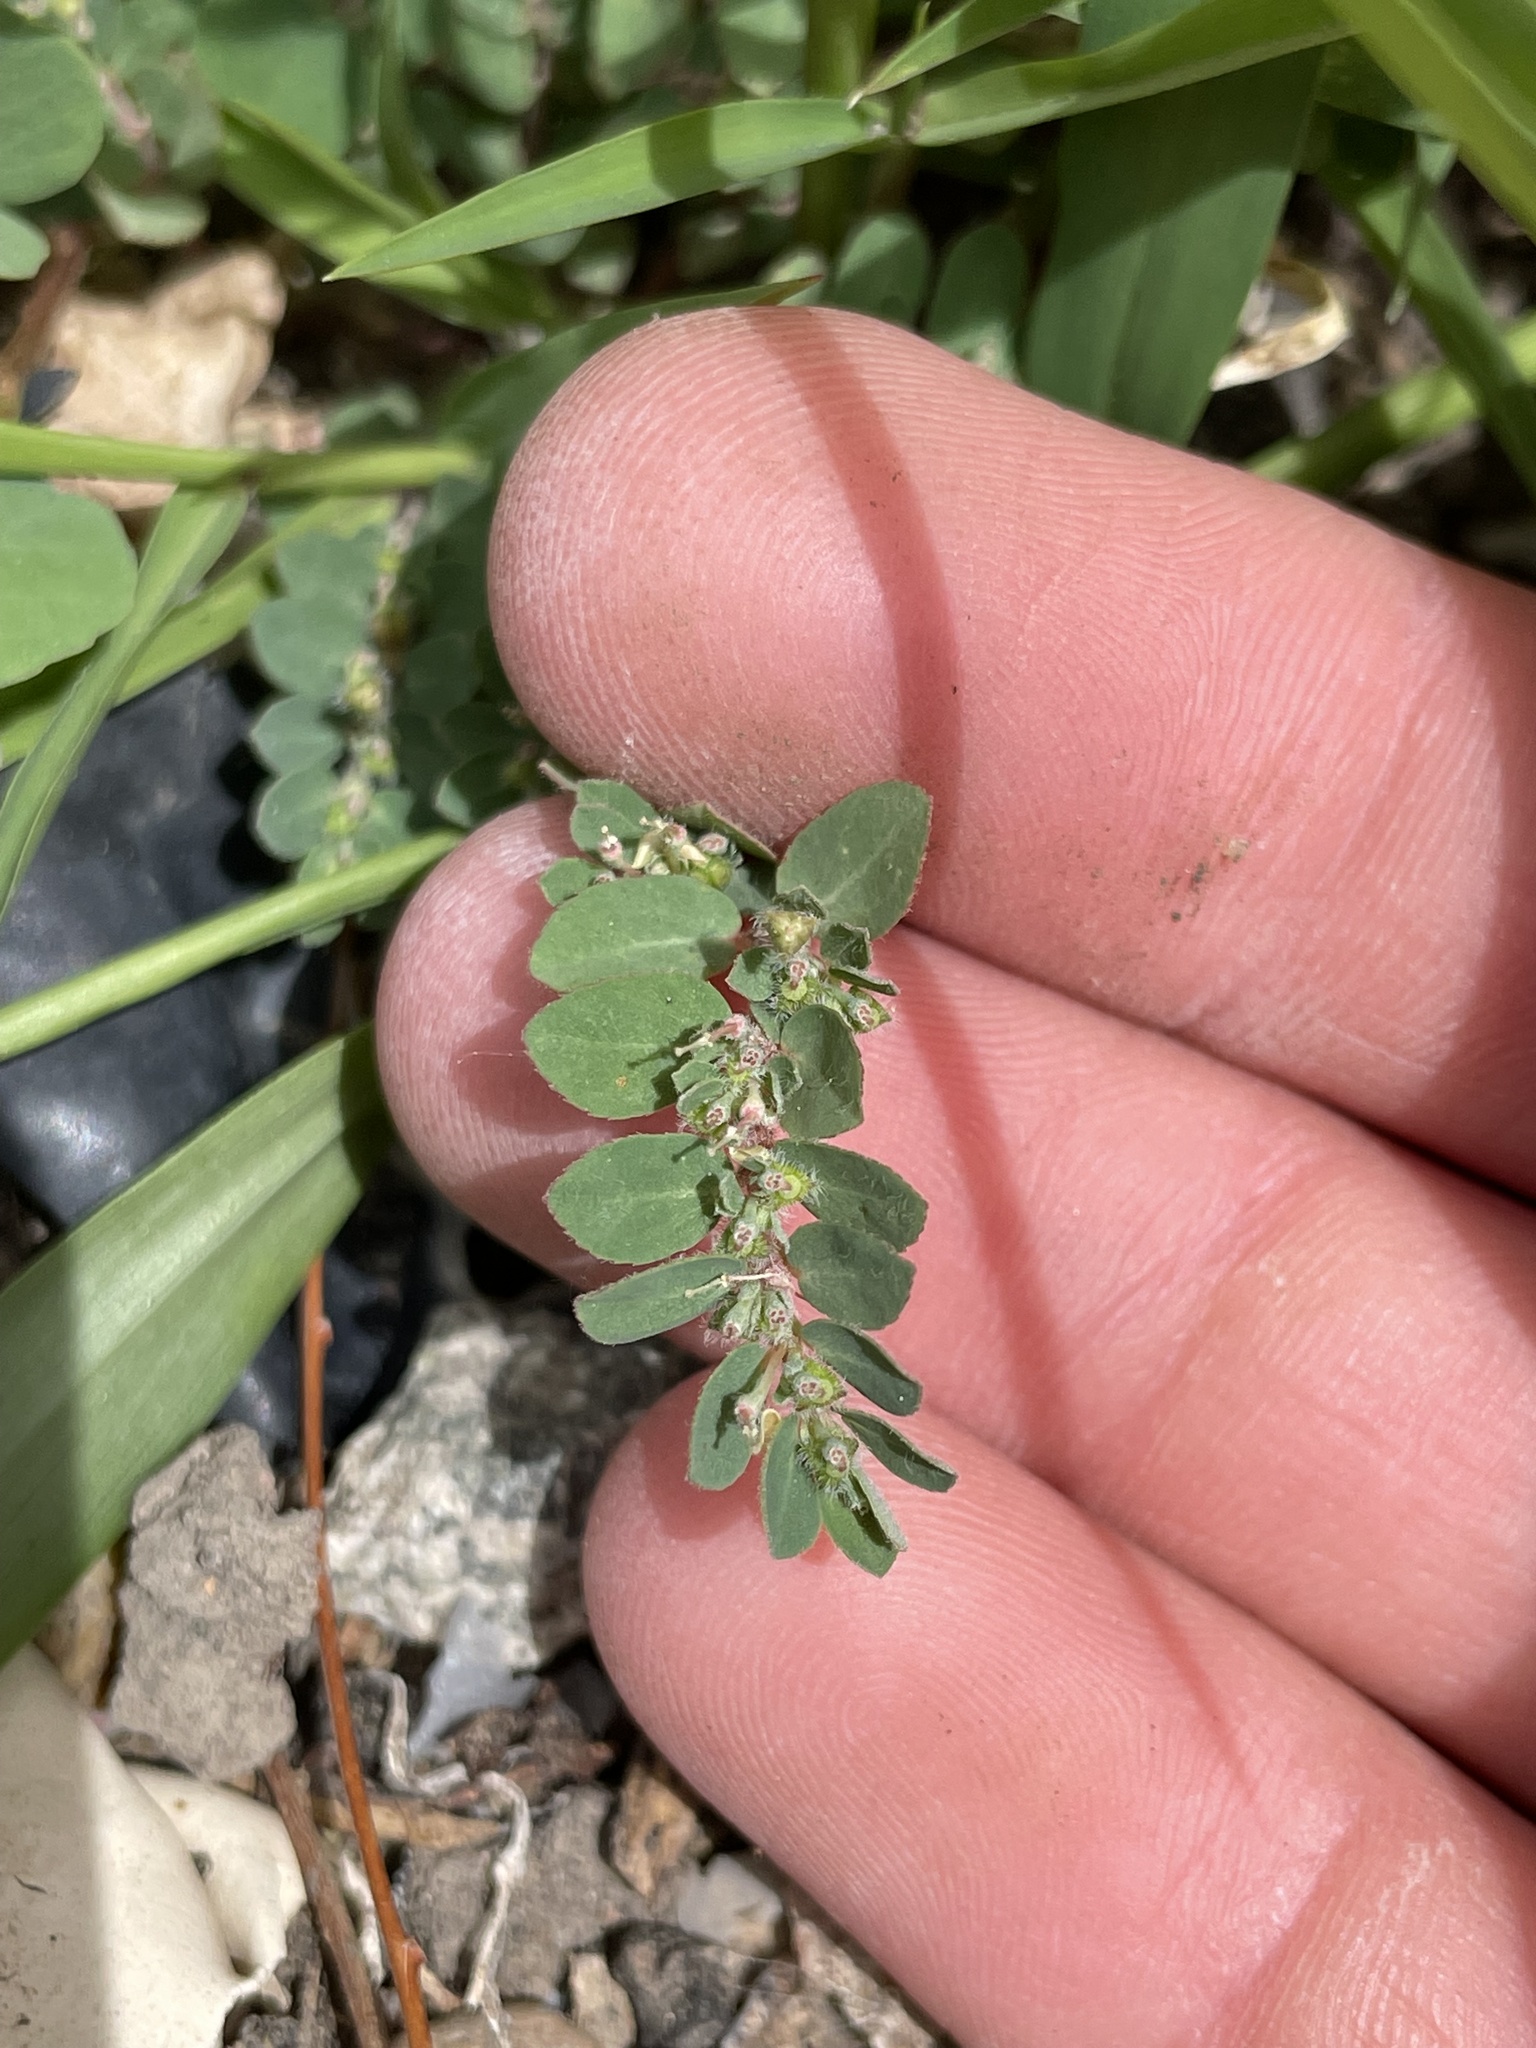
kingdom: Plantae
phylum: Tracheophyta
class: Magnoliopsida
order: Malpighiales
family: Euphorbiaceae
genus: Euphorbia
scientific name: Euphorbia prostrata
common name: Prostrate sandmat
